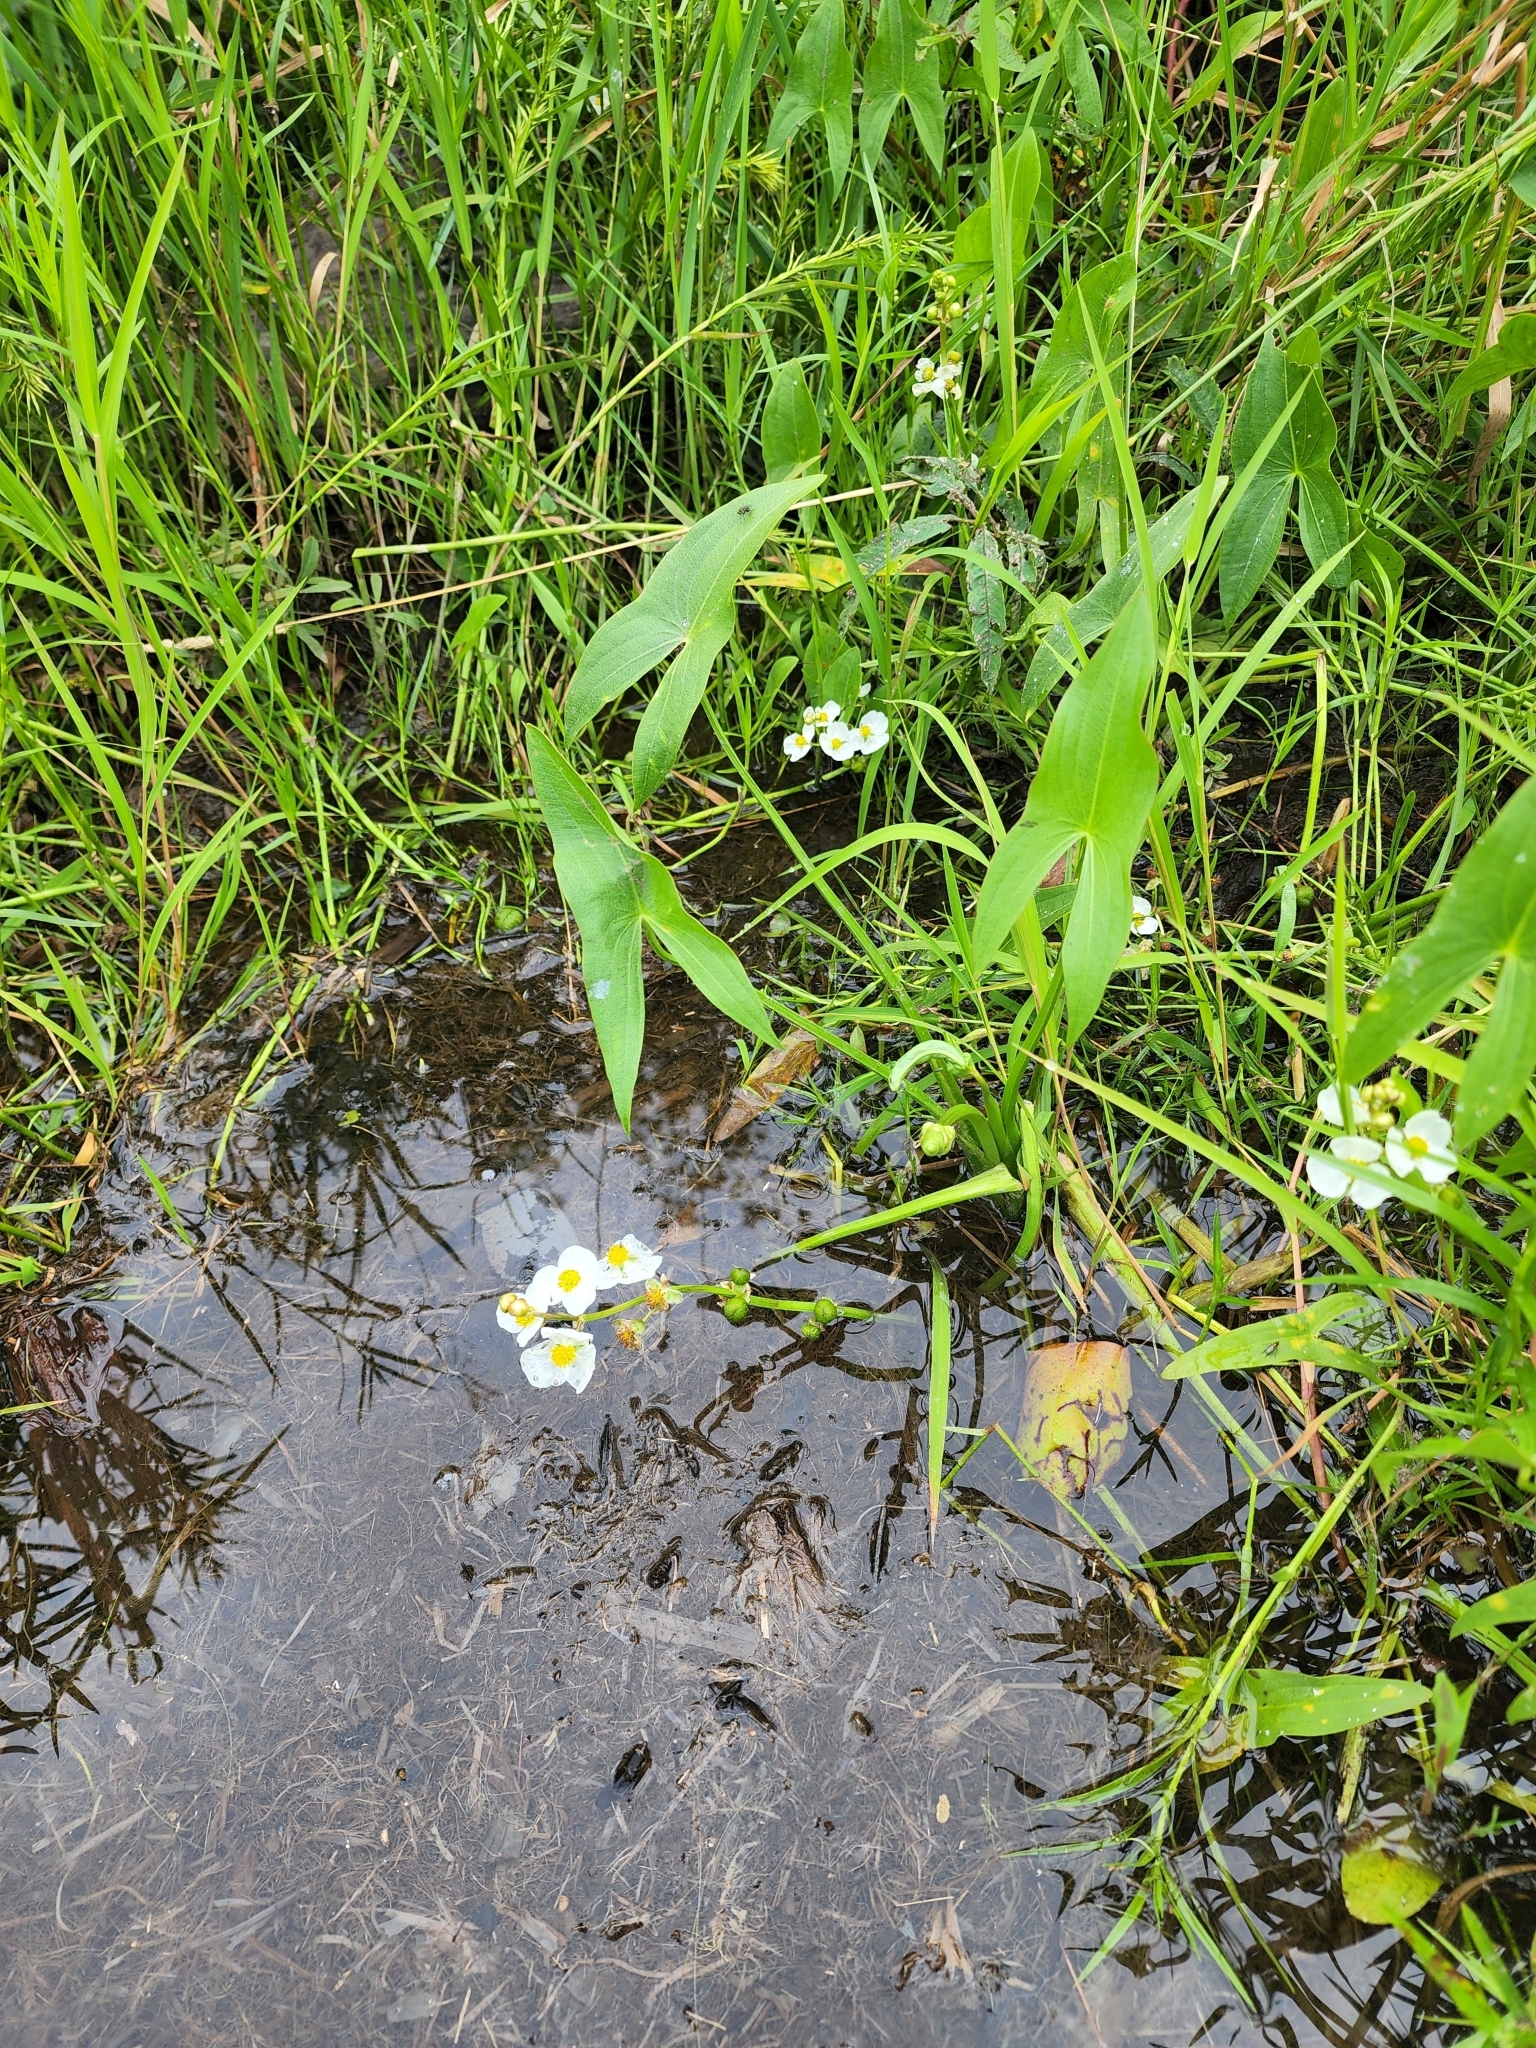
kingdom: Plantae
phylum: Tracheophyta
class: Liliopsida
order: Alismatales
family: Alismataceae
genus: Sagittaria
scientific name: Sagittaria latifolia
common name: Duck-potato
